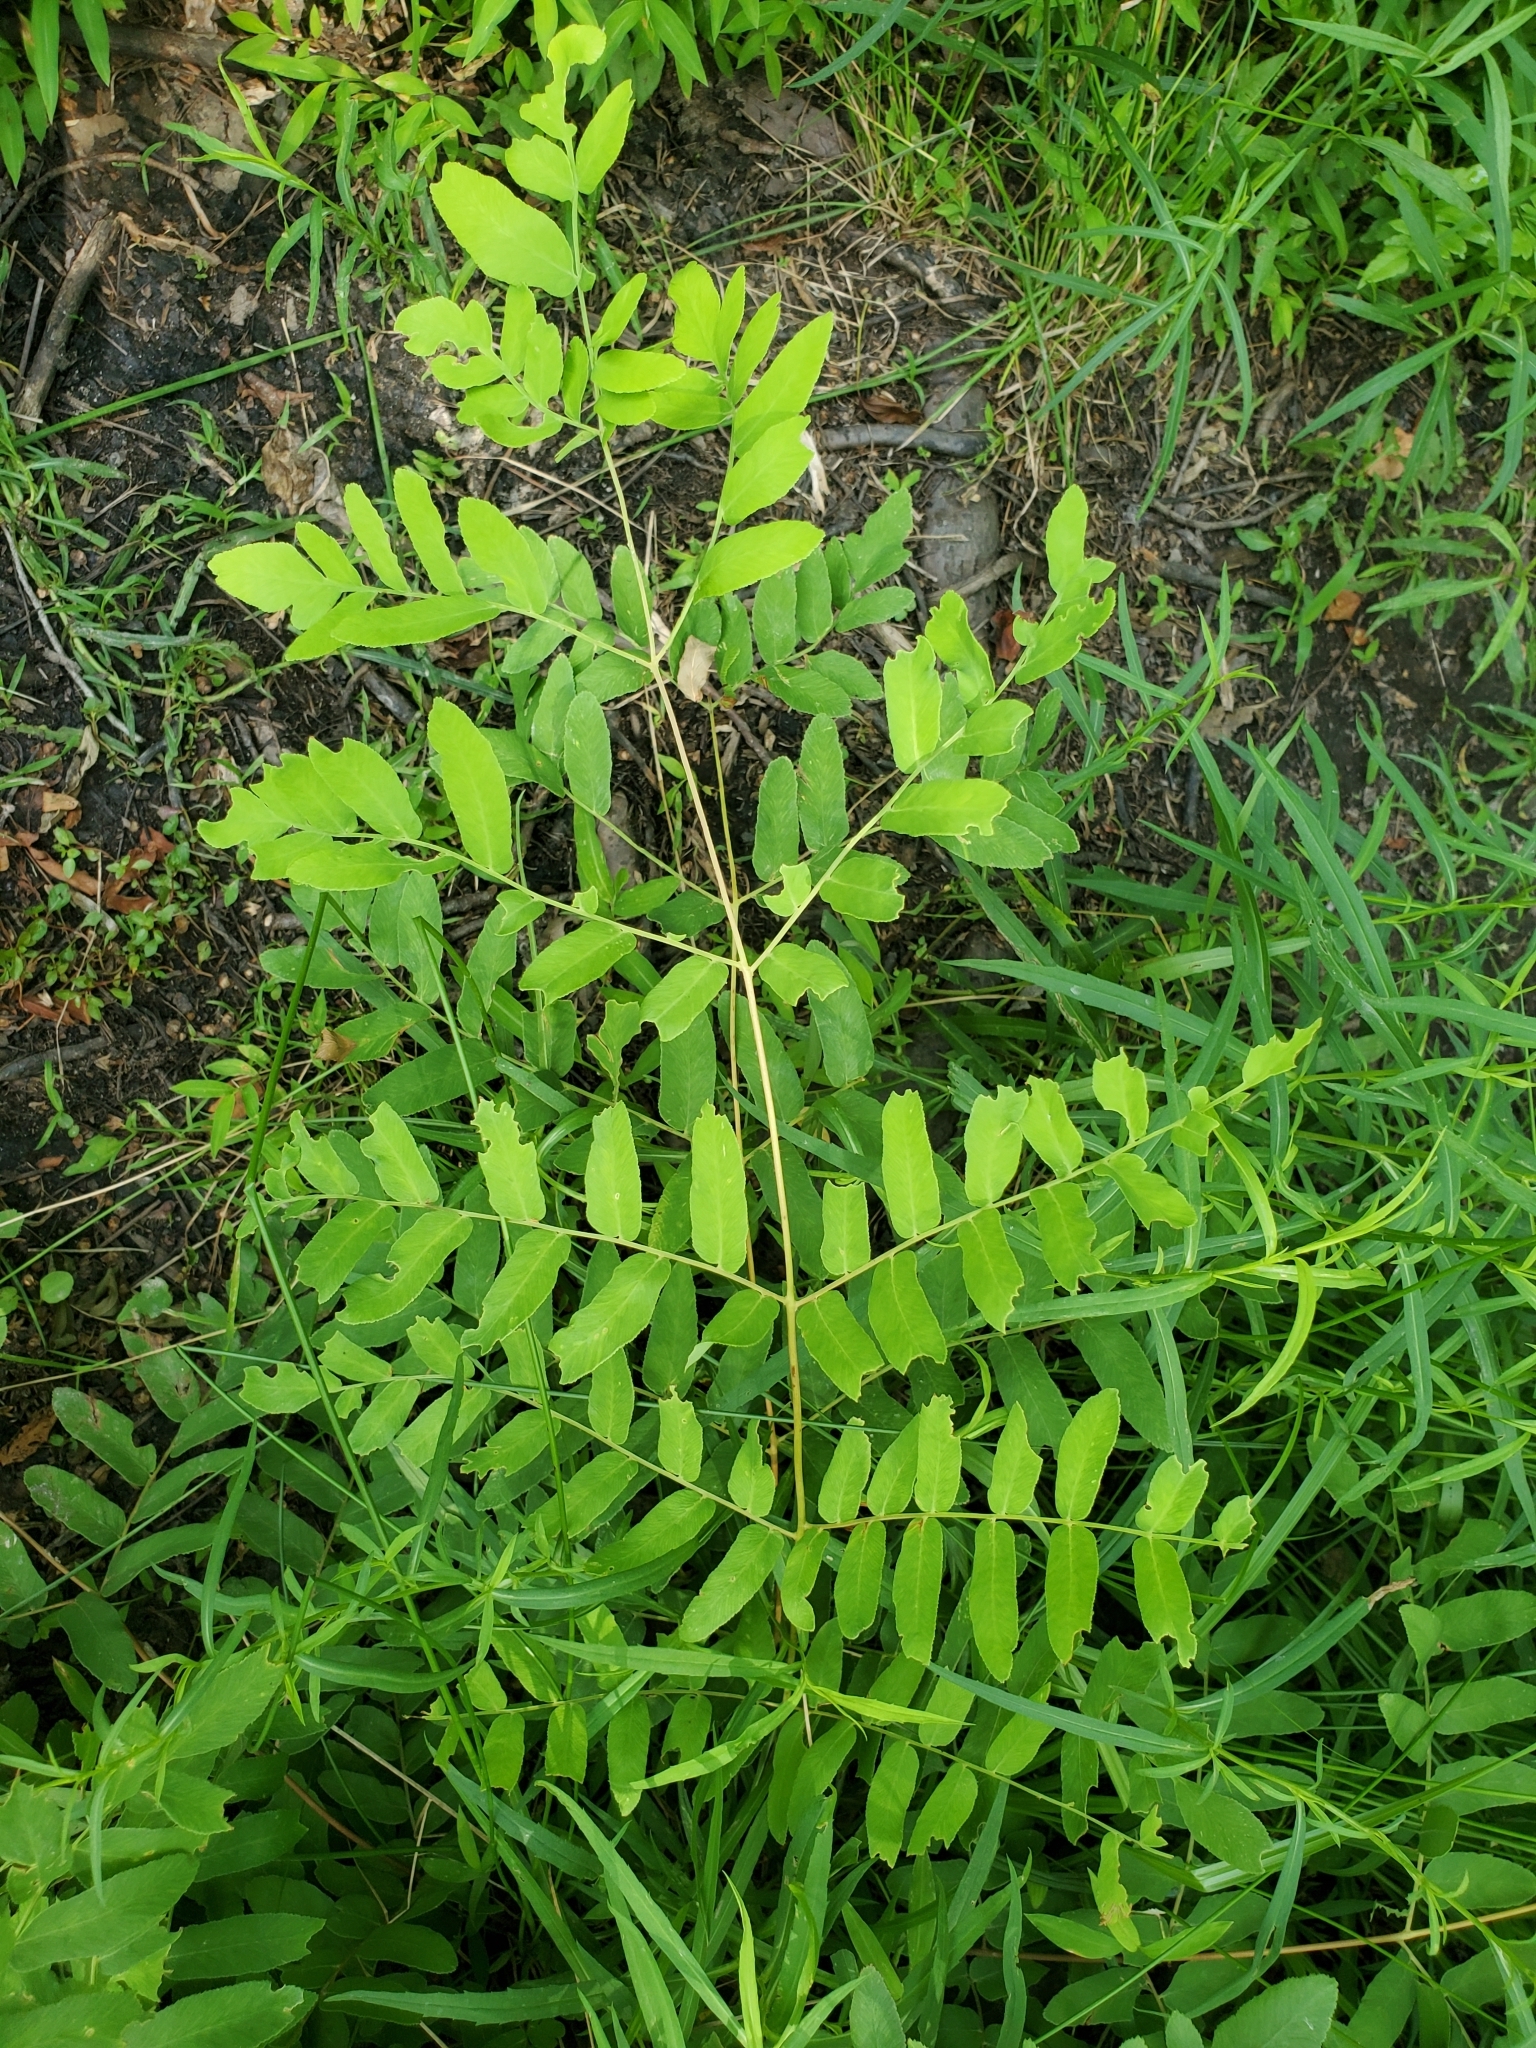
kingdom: Plantae
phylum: Tracheophyta
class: Polypodiopsida
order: Osmundales
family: Osmundaceae
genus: Osmunda
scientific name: Osmunda spectabilis
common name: American royal fern
